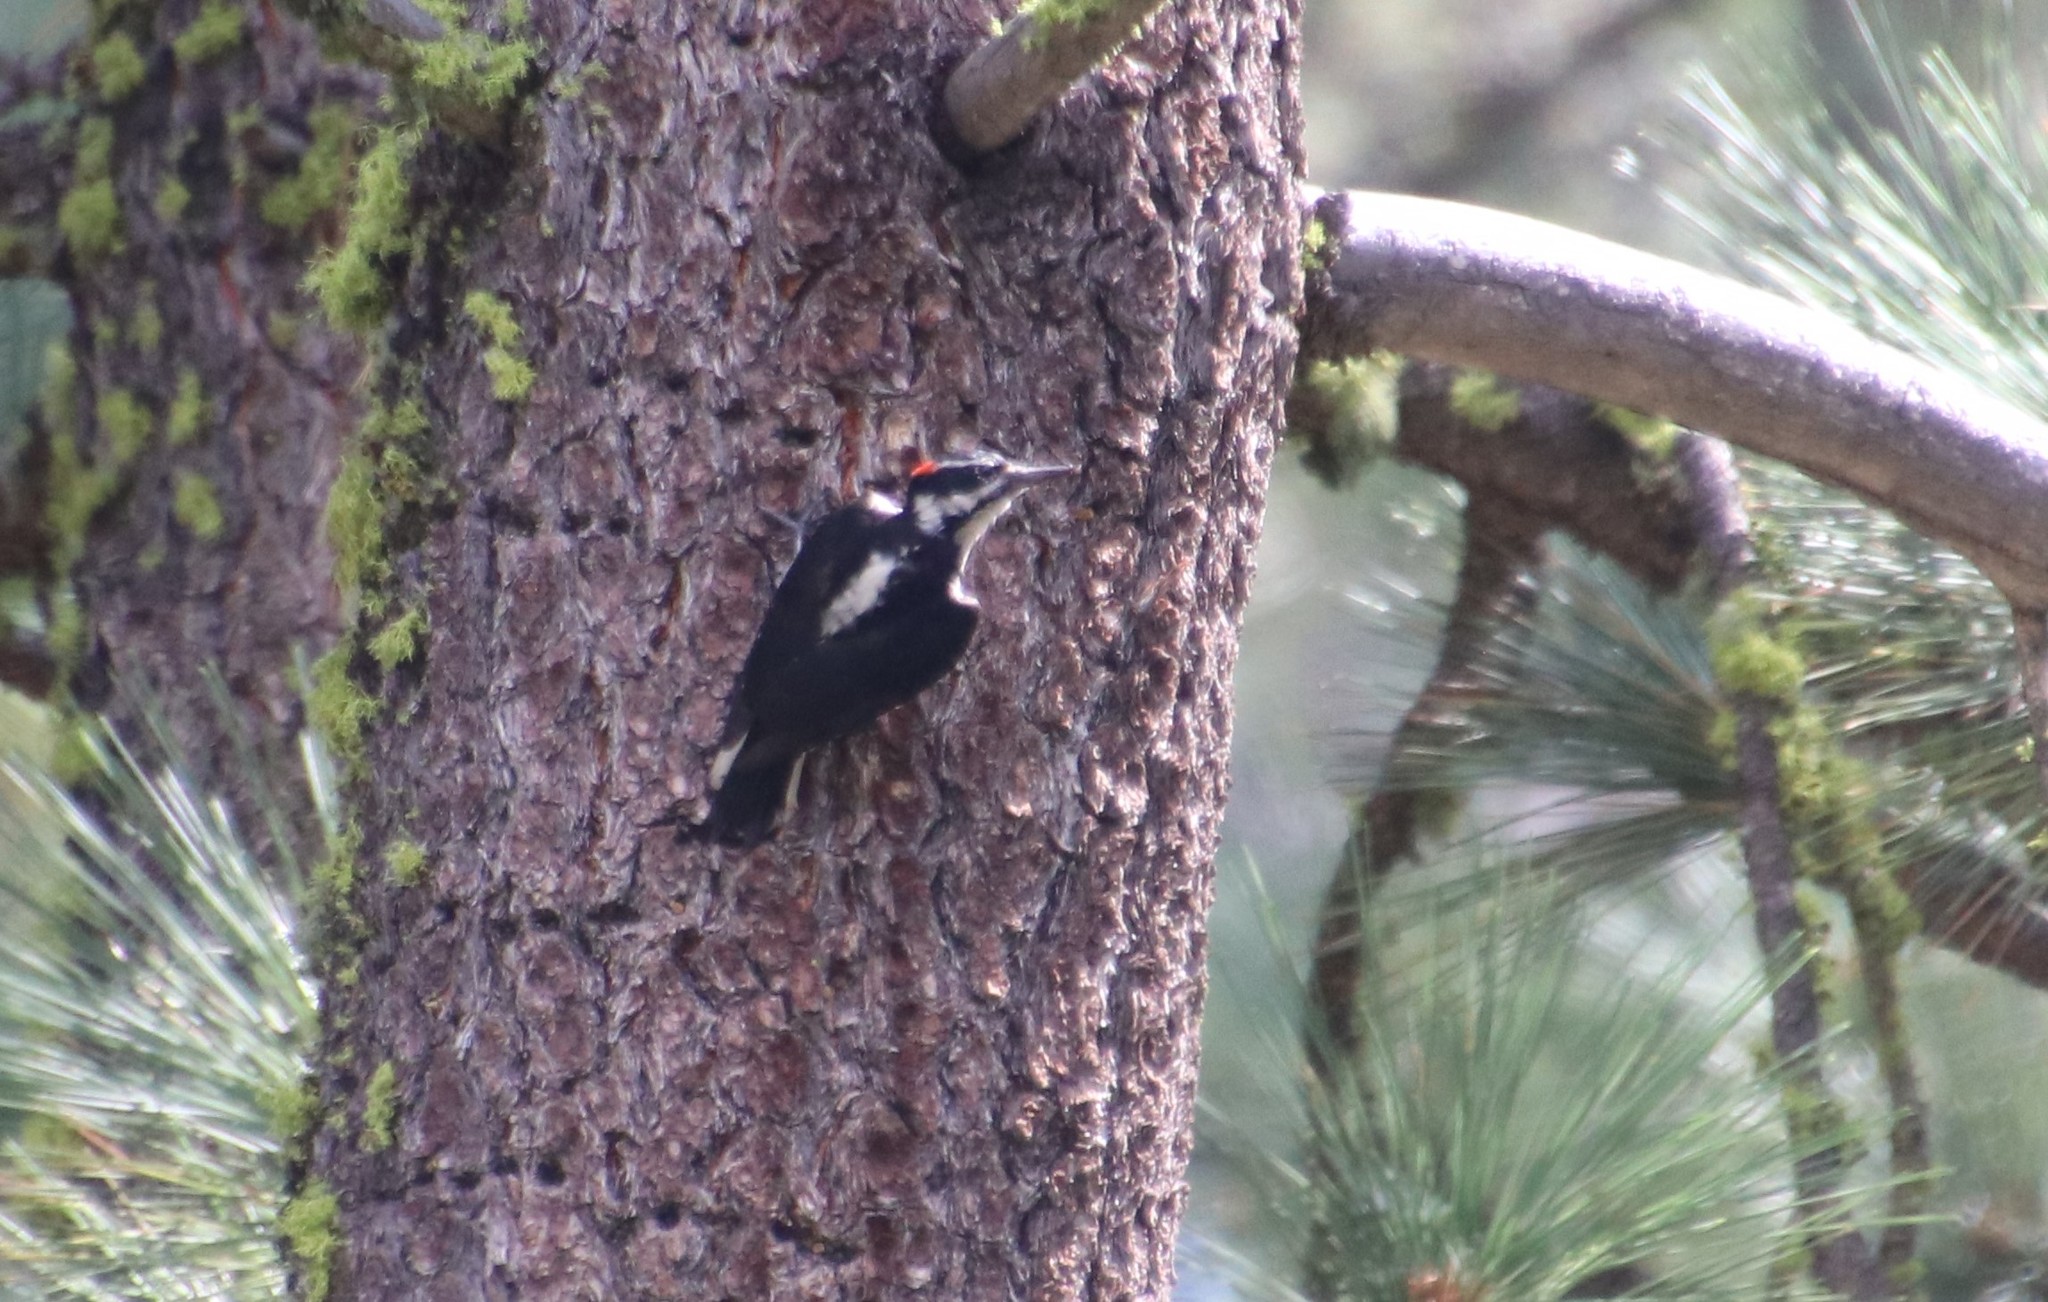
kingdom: Animalia
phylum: Chordata
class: Aves
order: Piciformes
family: Picidae
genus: Leuconotopicus
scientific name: Leuconotopicus villosus
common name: Hairy woodpecker
